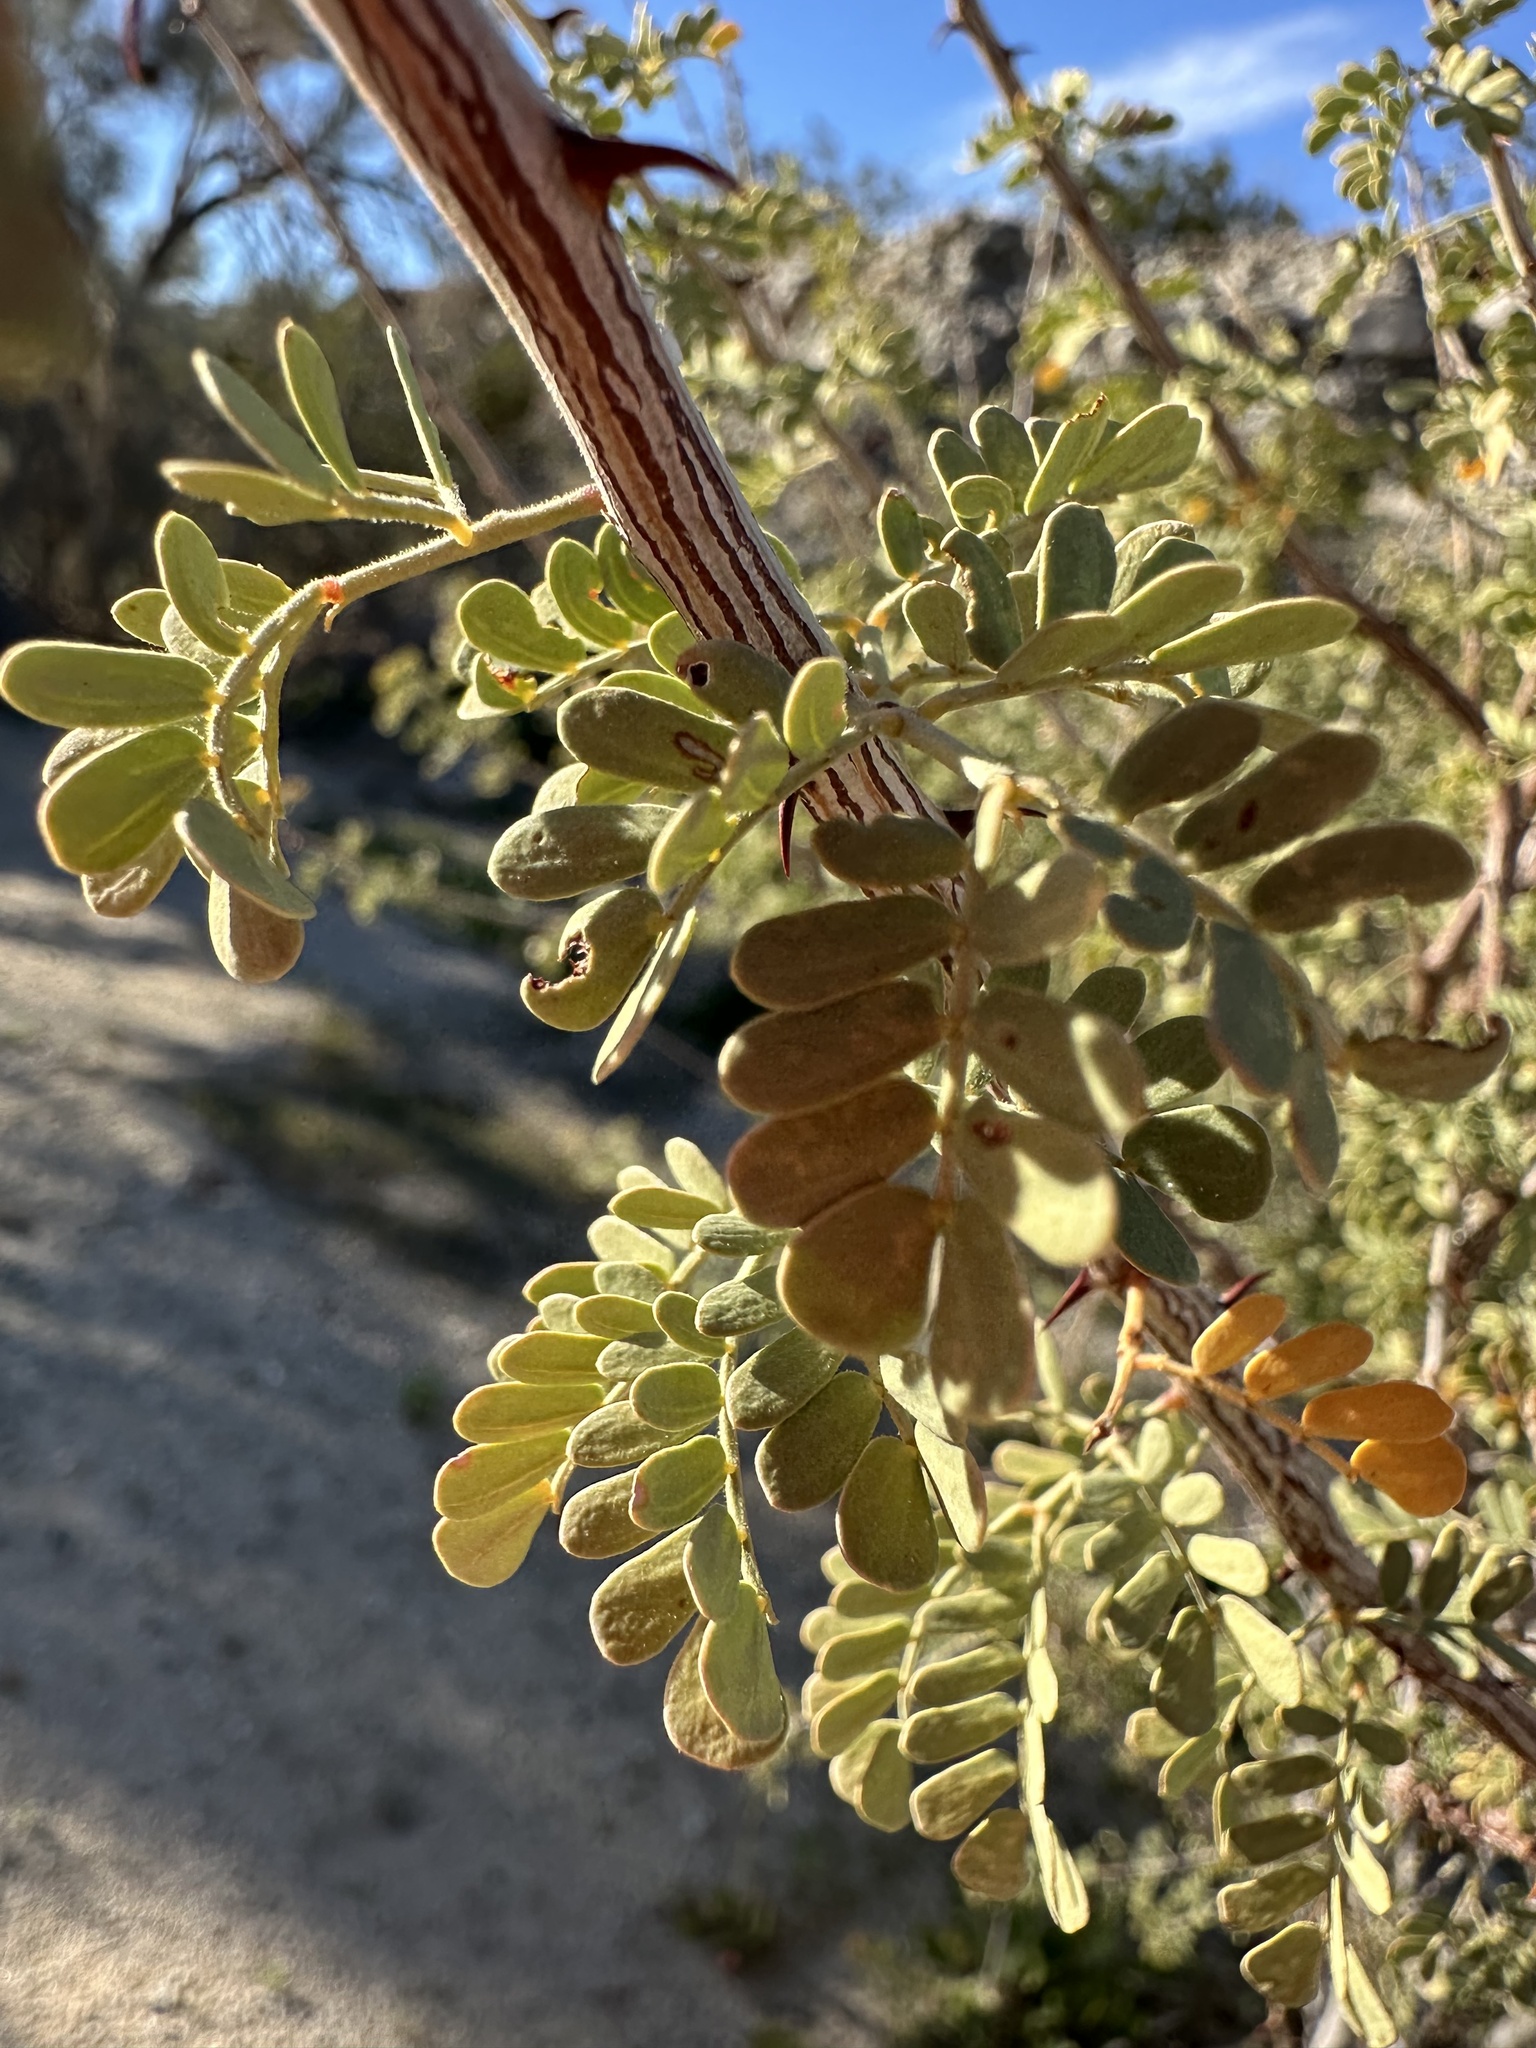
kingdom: Plantae
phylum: Tracheophyta
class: Magnoliopsida
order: Fabales
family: Fabaceae
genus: Senegalia
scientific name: Senegalia greggii
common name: Texas-mimosa
